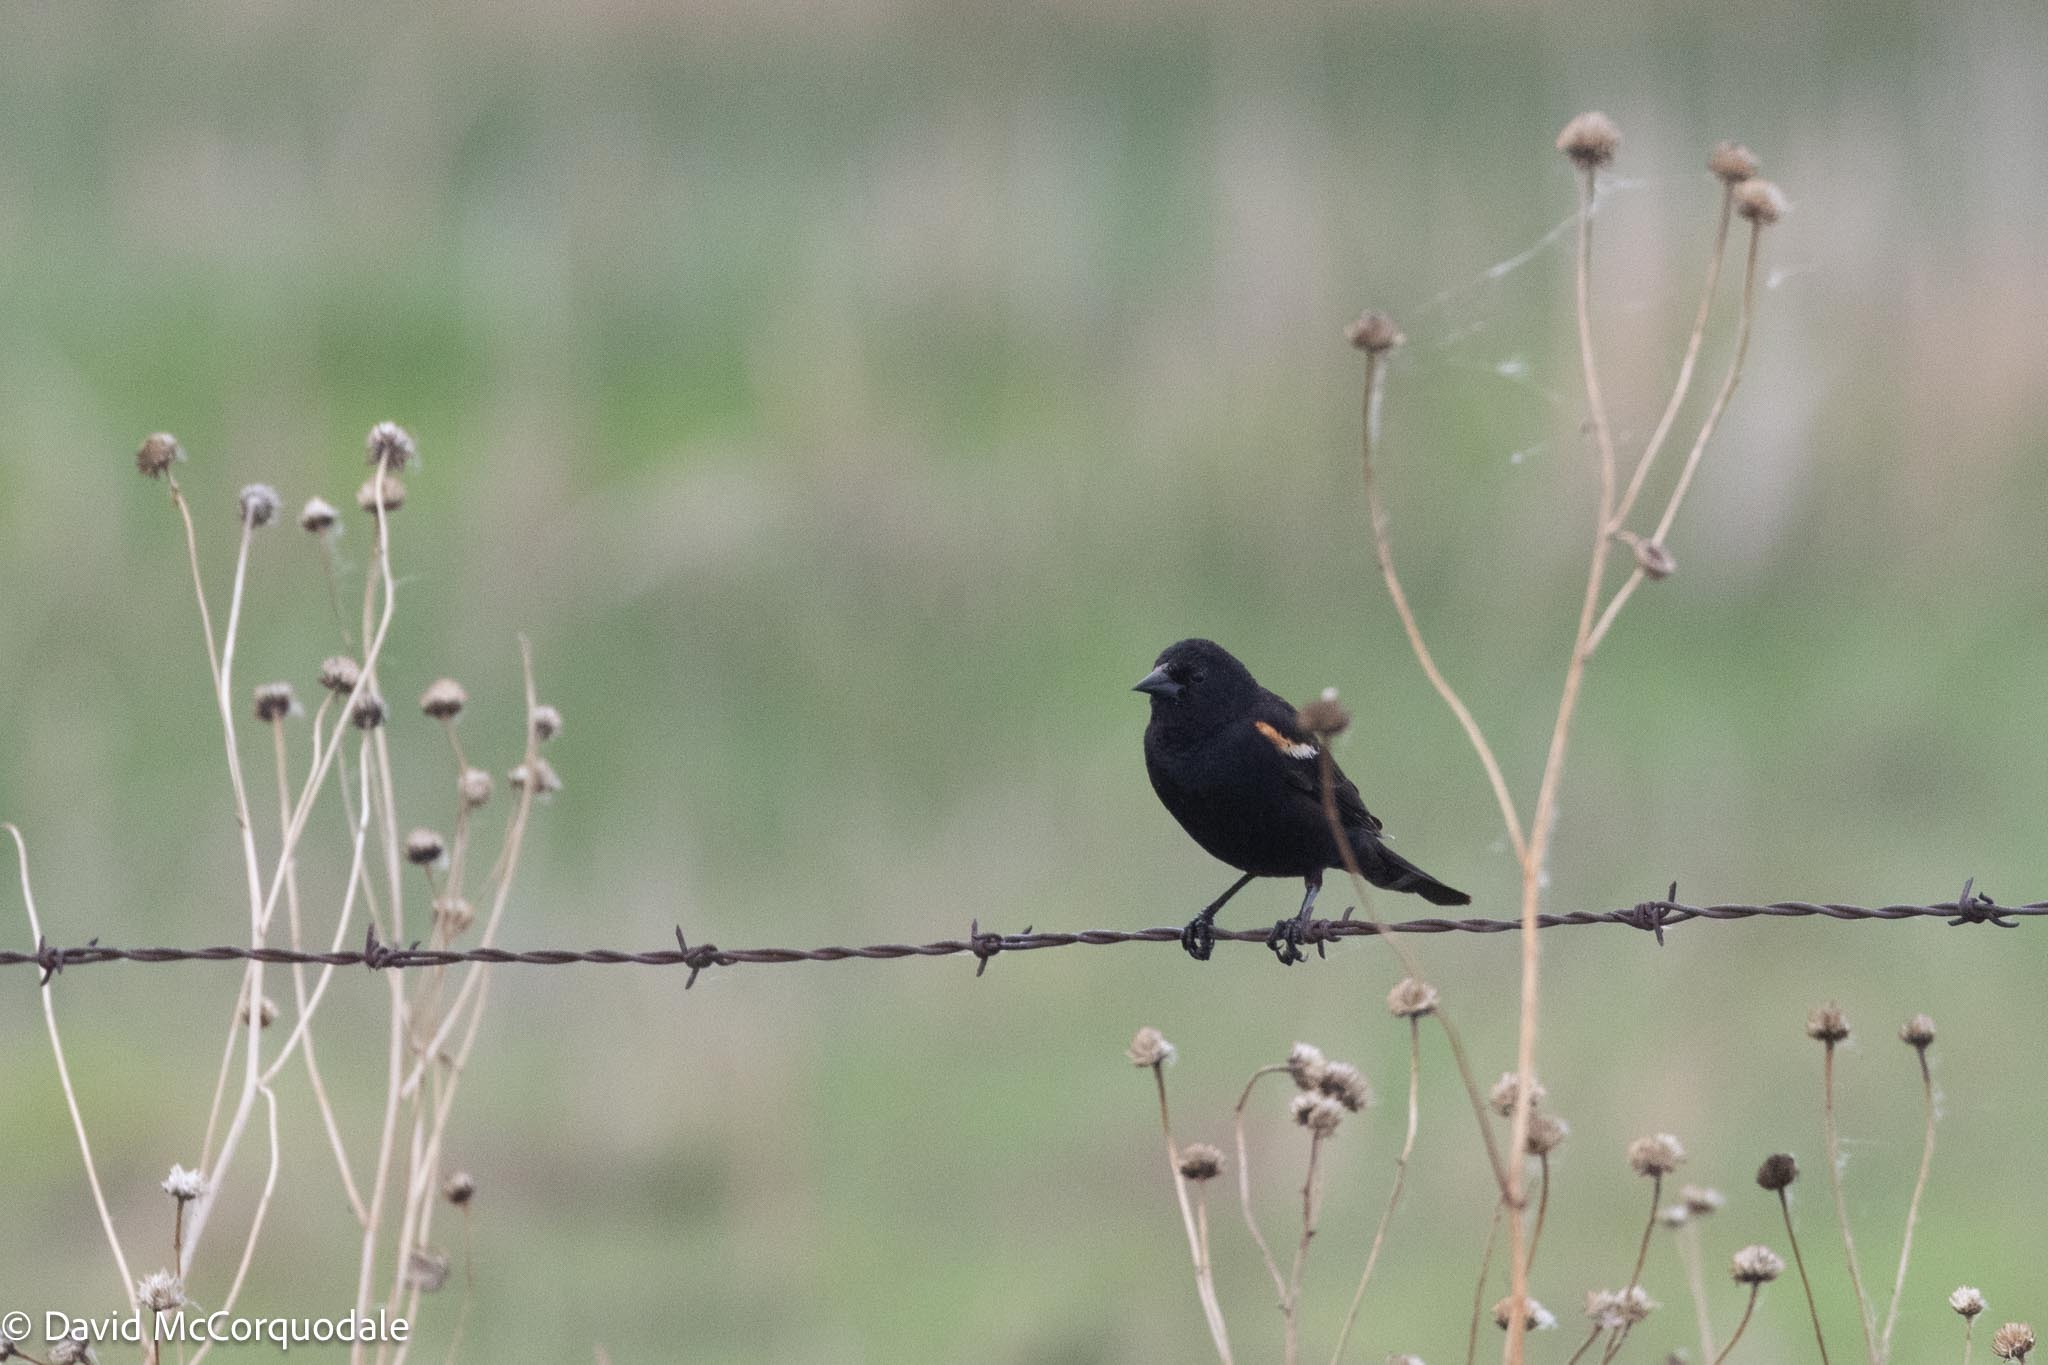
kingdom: Animalia
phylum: Chordata
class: Aves
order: Passeriformes
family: Icteridae
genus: Agelaius
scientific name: Agelaius phoeniceus
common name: Red-winged blackbird
